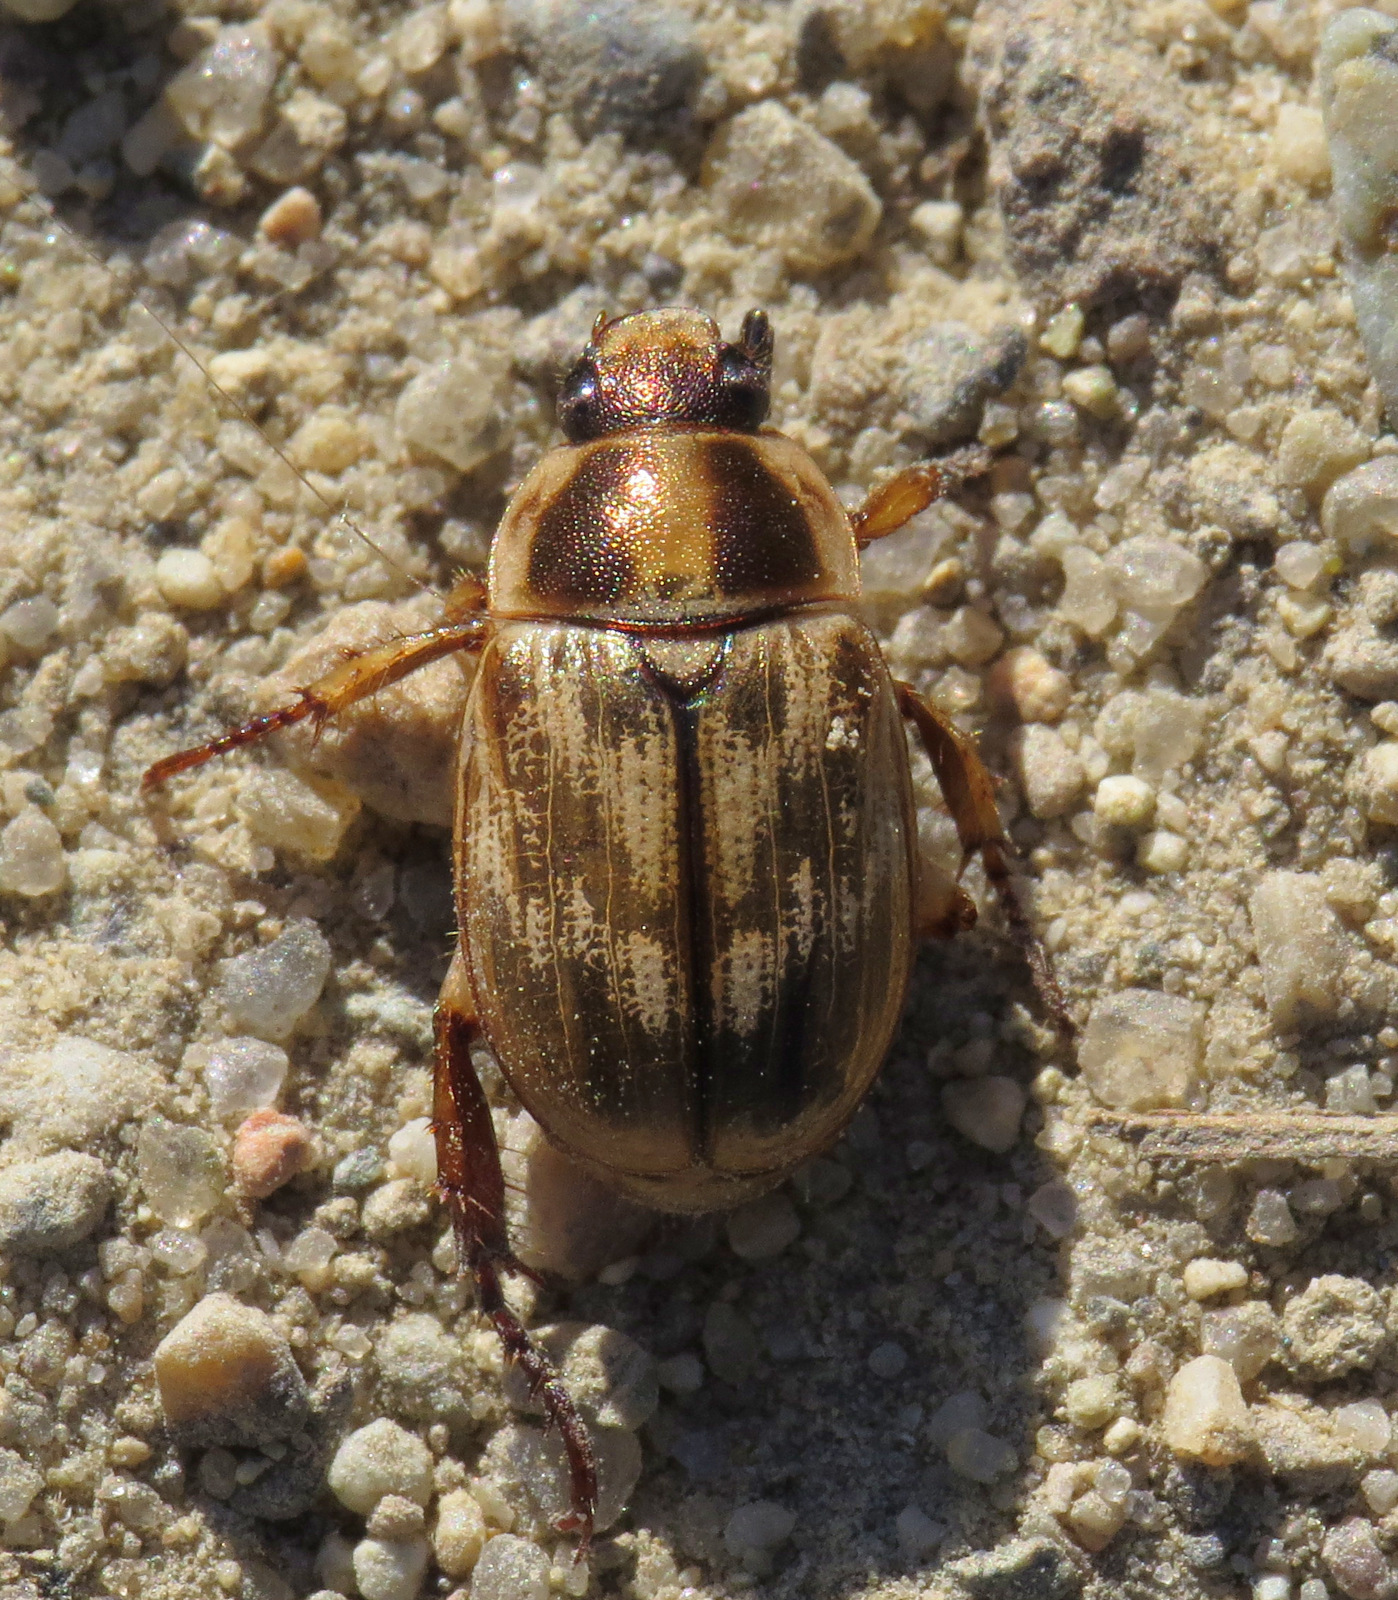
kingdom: Animalia
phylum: Arthropoda
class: Insecta
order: Coleoptera
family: Scarabaeidae
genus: Exomala
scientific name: Exomala orientalis
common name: Oriental beetle
